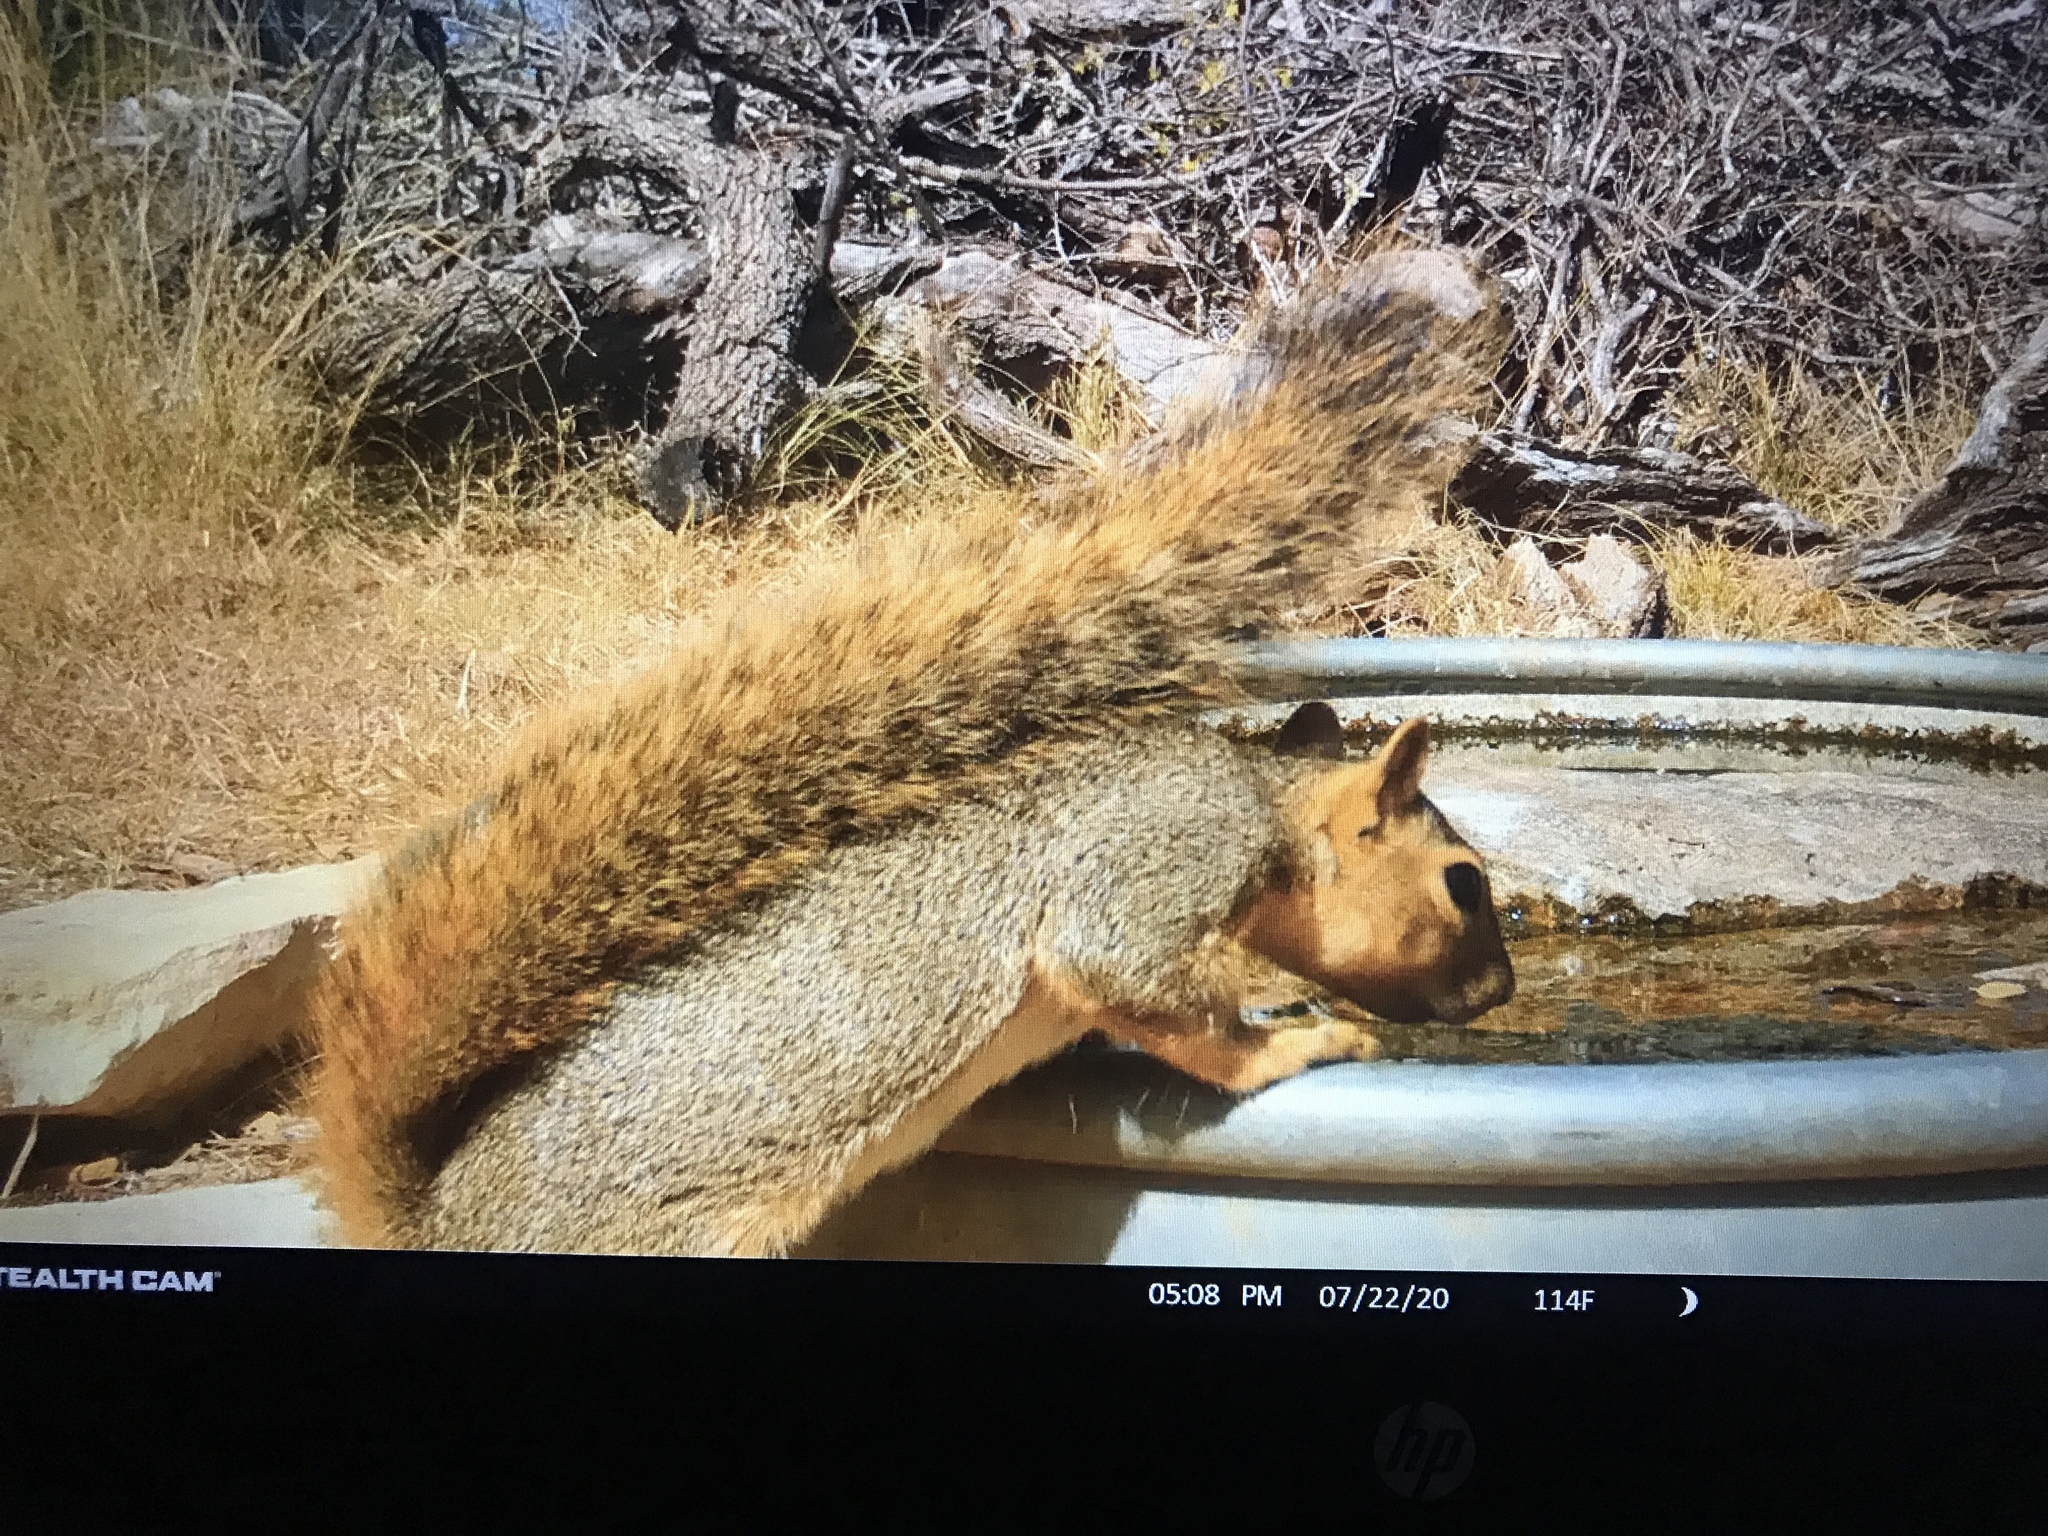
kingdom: Animalia
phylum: Chordata
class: Mammalia
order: Rodentia
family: Sciuridae
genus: Sciurus
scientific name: Sciurus niger
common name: Fox squirrel
